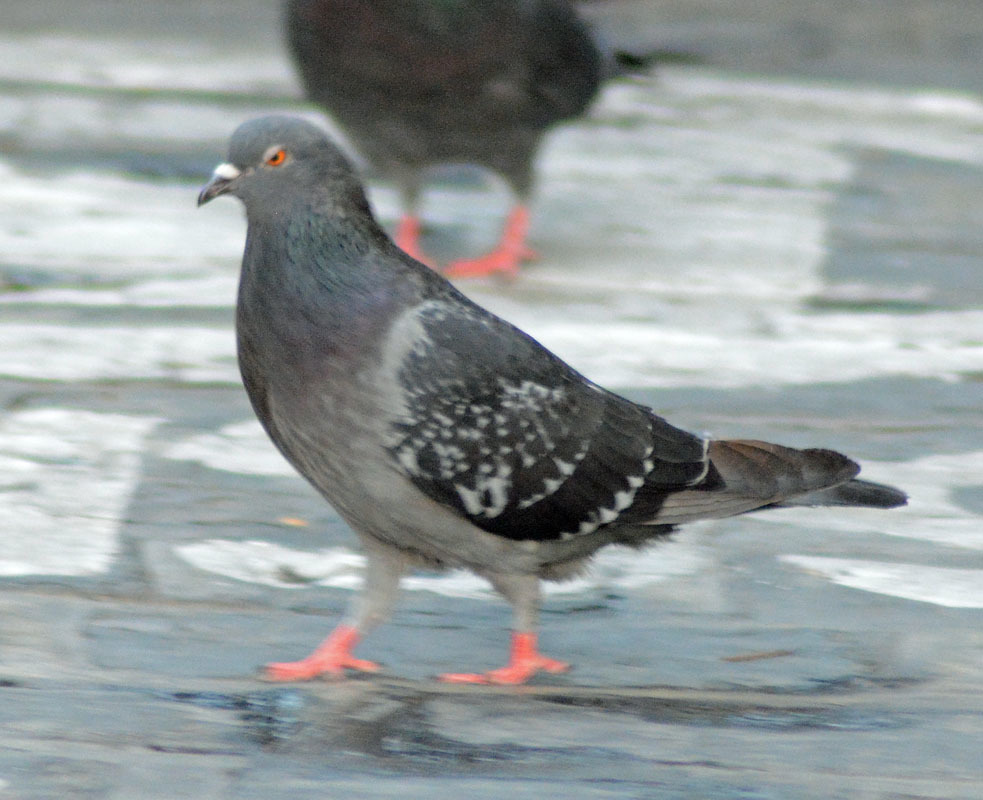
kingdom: Animalia
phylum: Chordata
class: Aves
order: Columbiformes
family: Columbidae
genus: Columba
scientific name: Columba livia
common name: Rock pigeon
